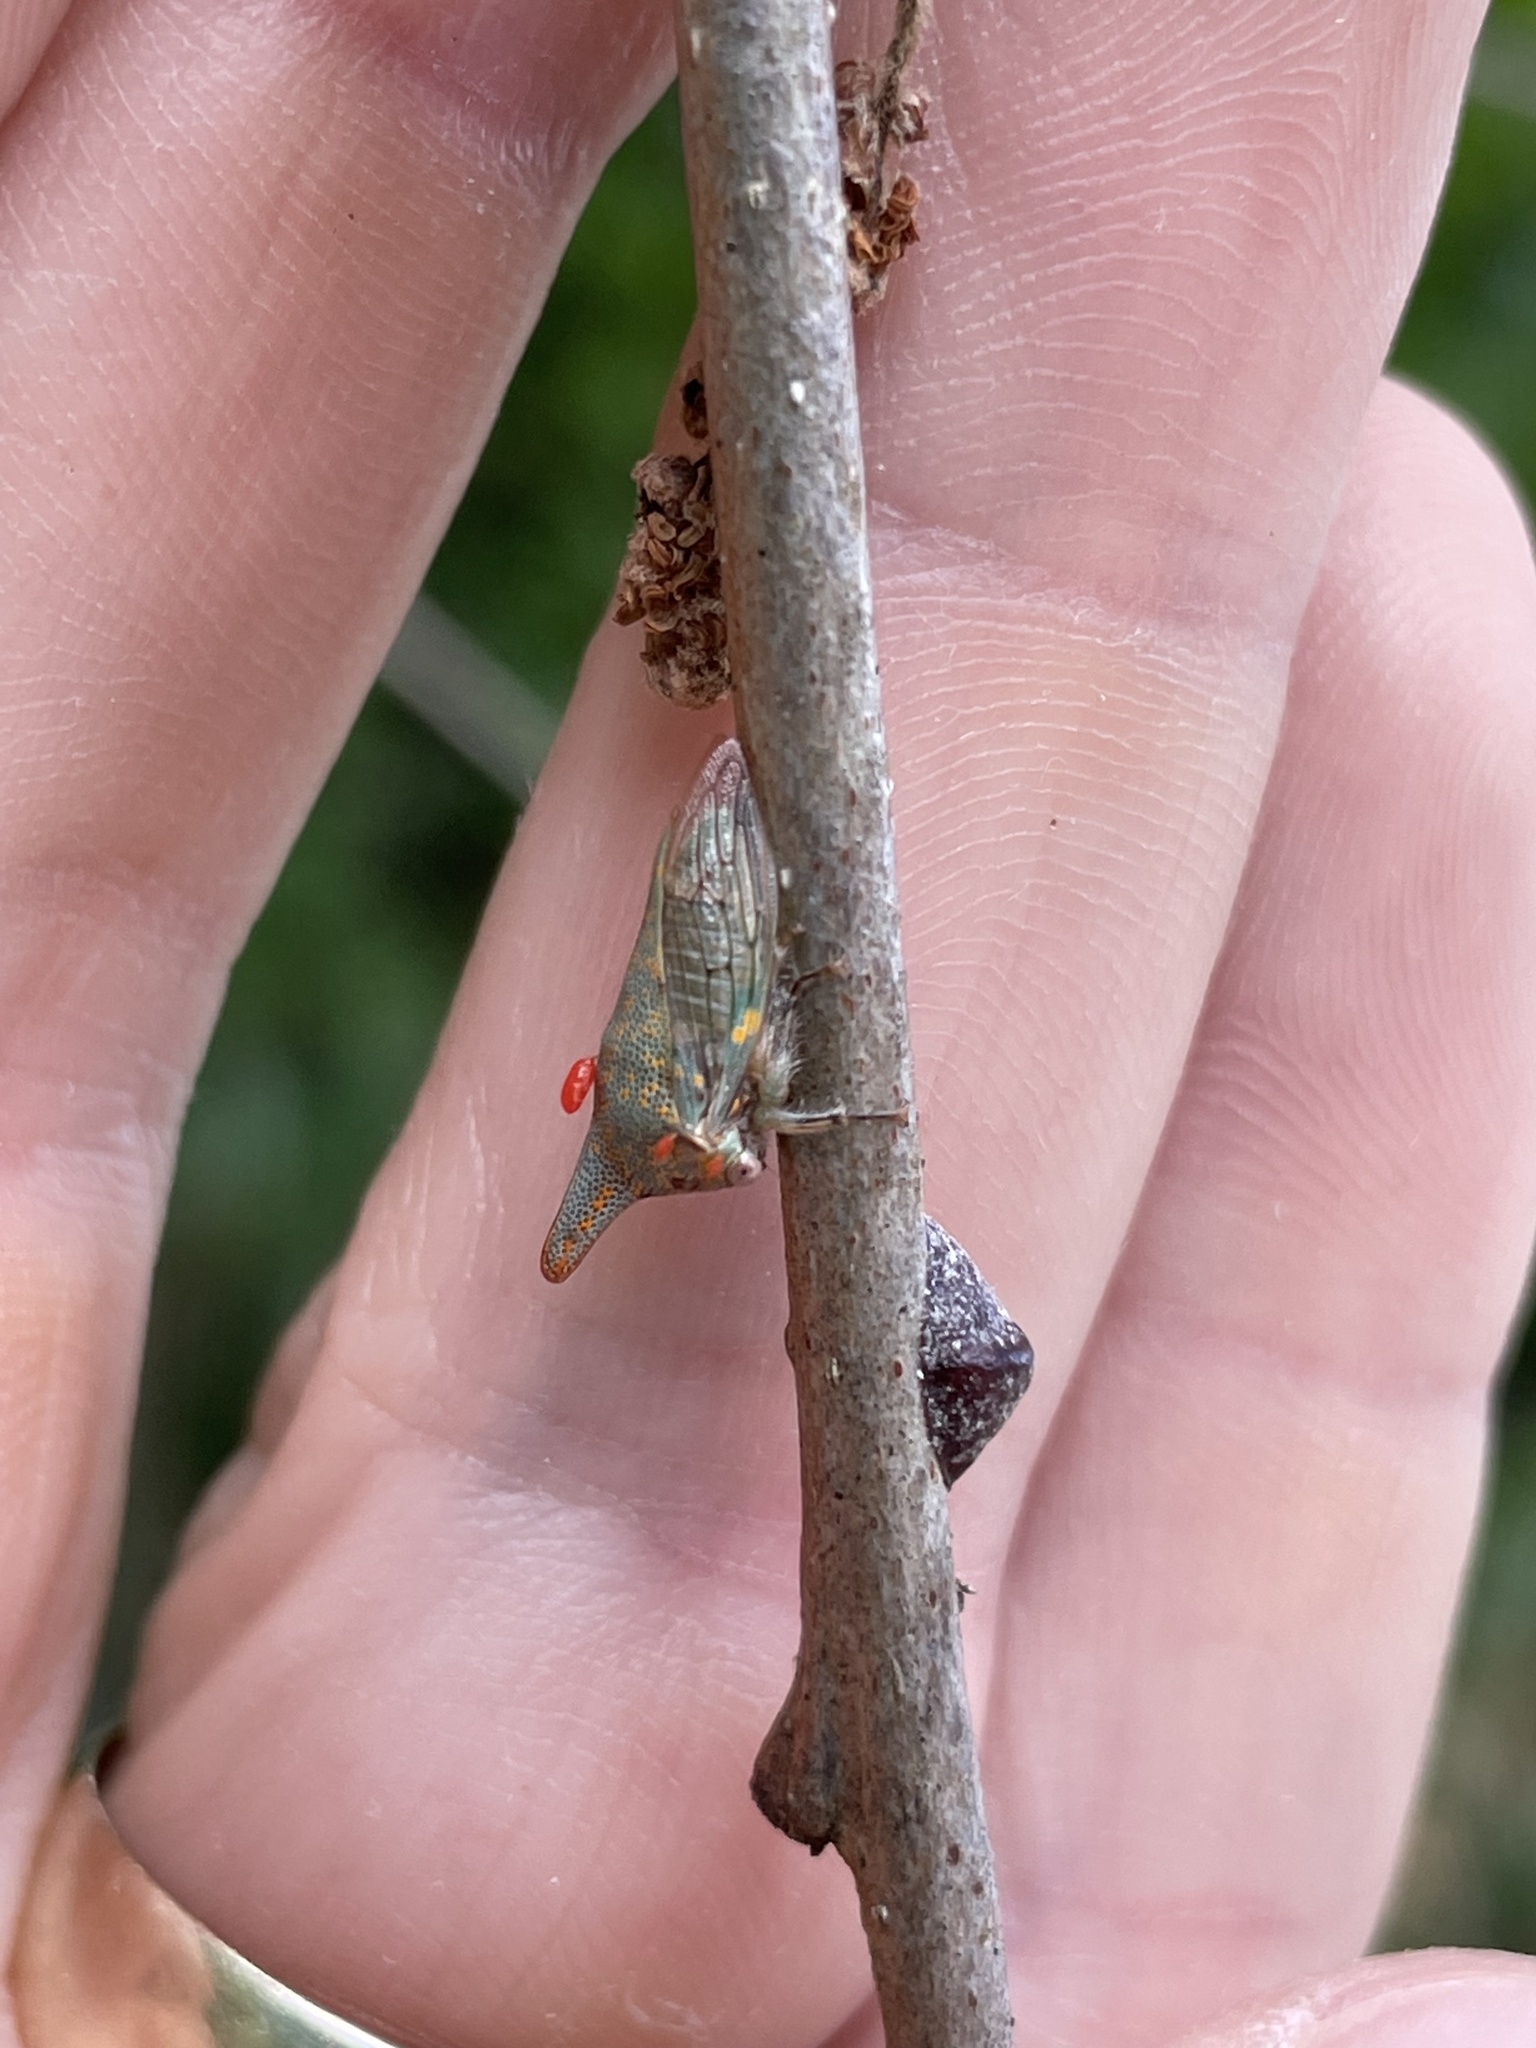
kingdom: Animalia
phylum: Arthropoda
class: Insecta
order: Hemiptera
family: Membracidae
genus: Platycotis
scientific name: Platycotis vittatus
